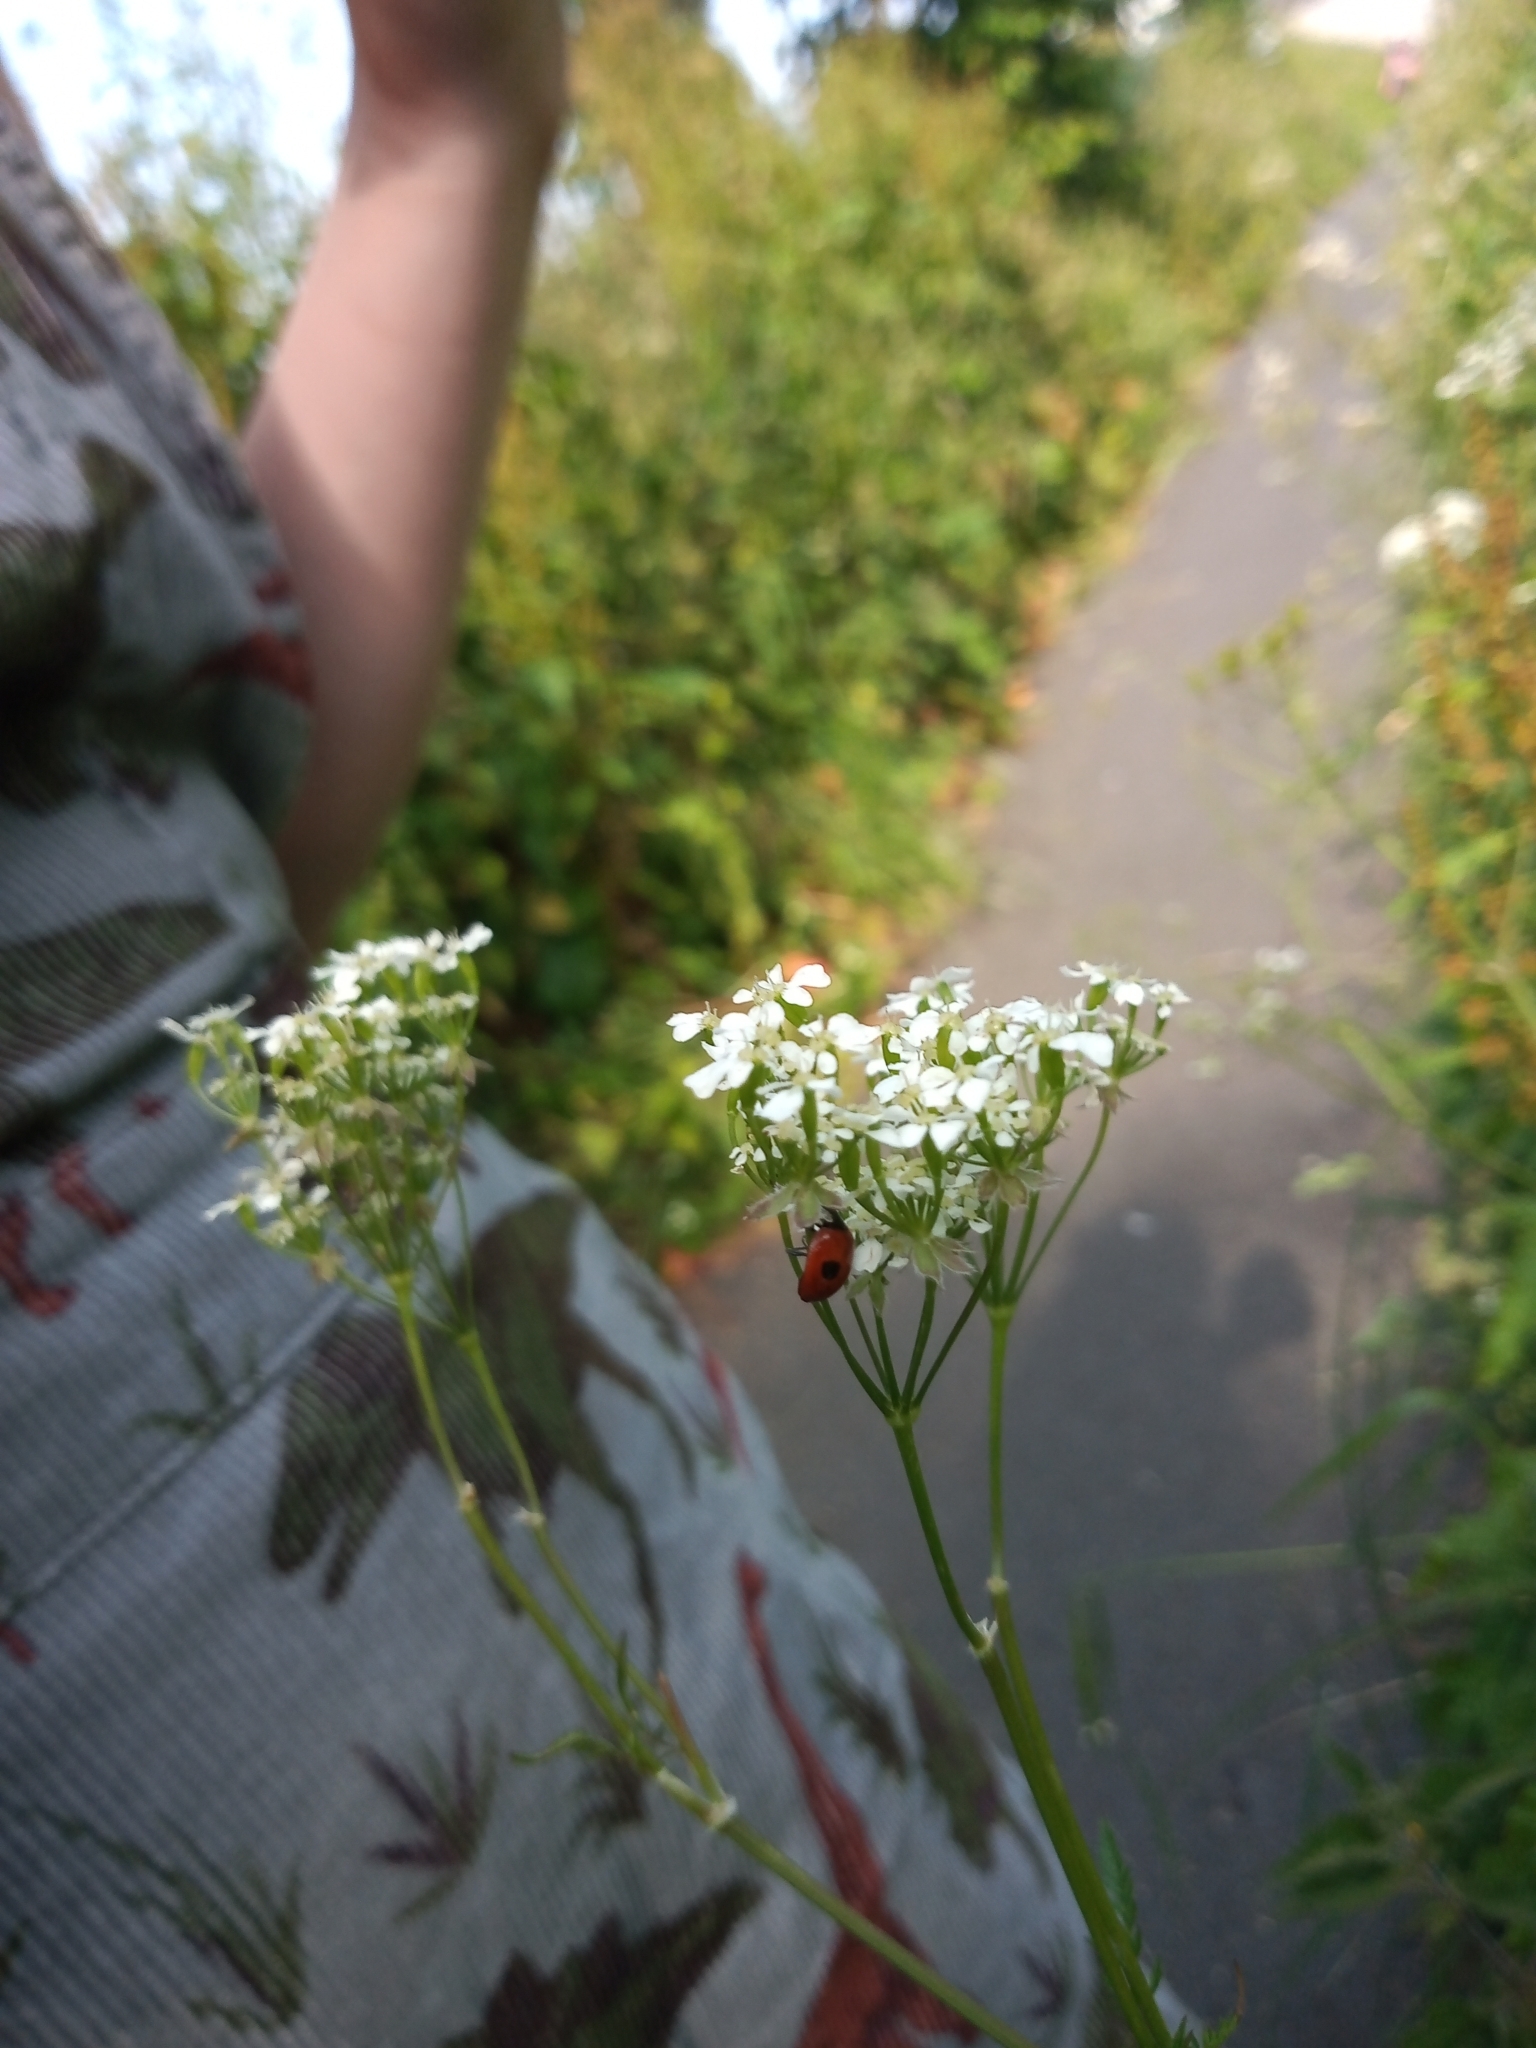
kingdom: Animalia
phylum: Arthropoda
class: Insecta
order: Coleoptera
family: Coccinellidae
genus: Adalia
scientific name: Adalia bipunctata
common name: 2-spot ladybird
